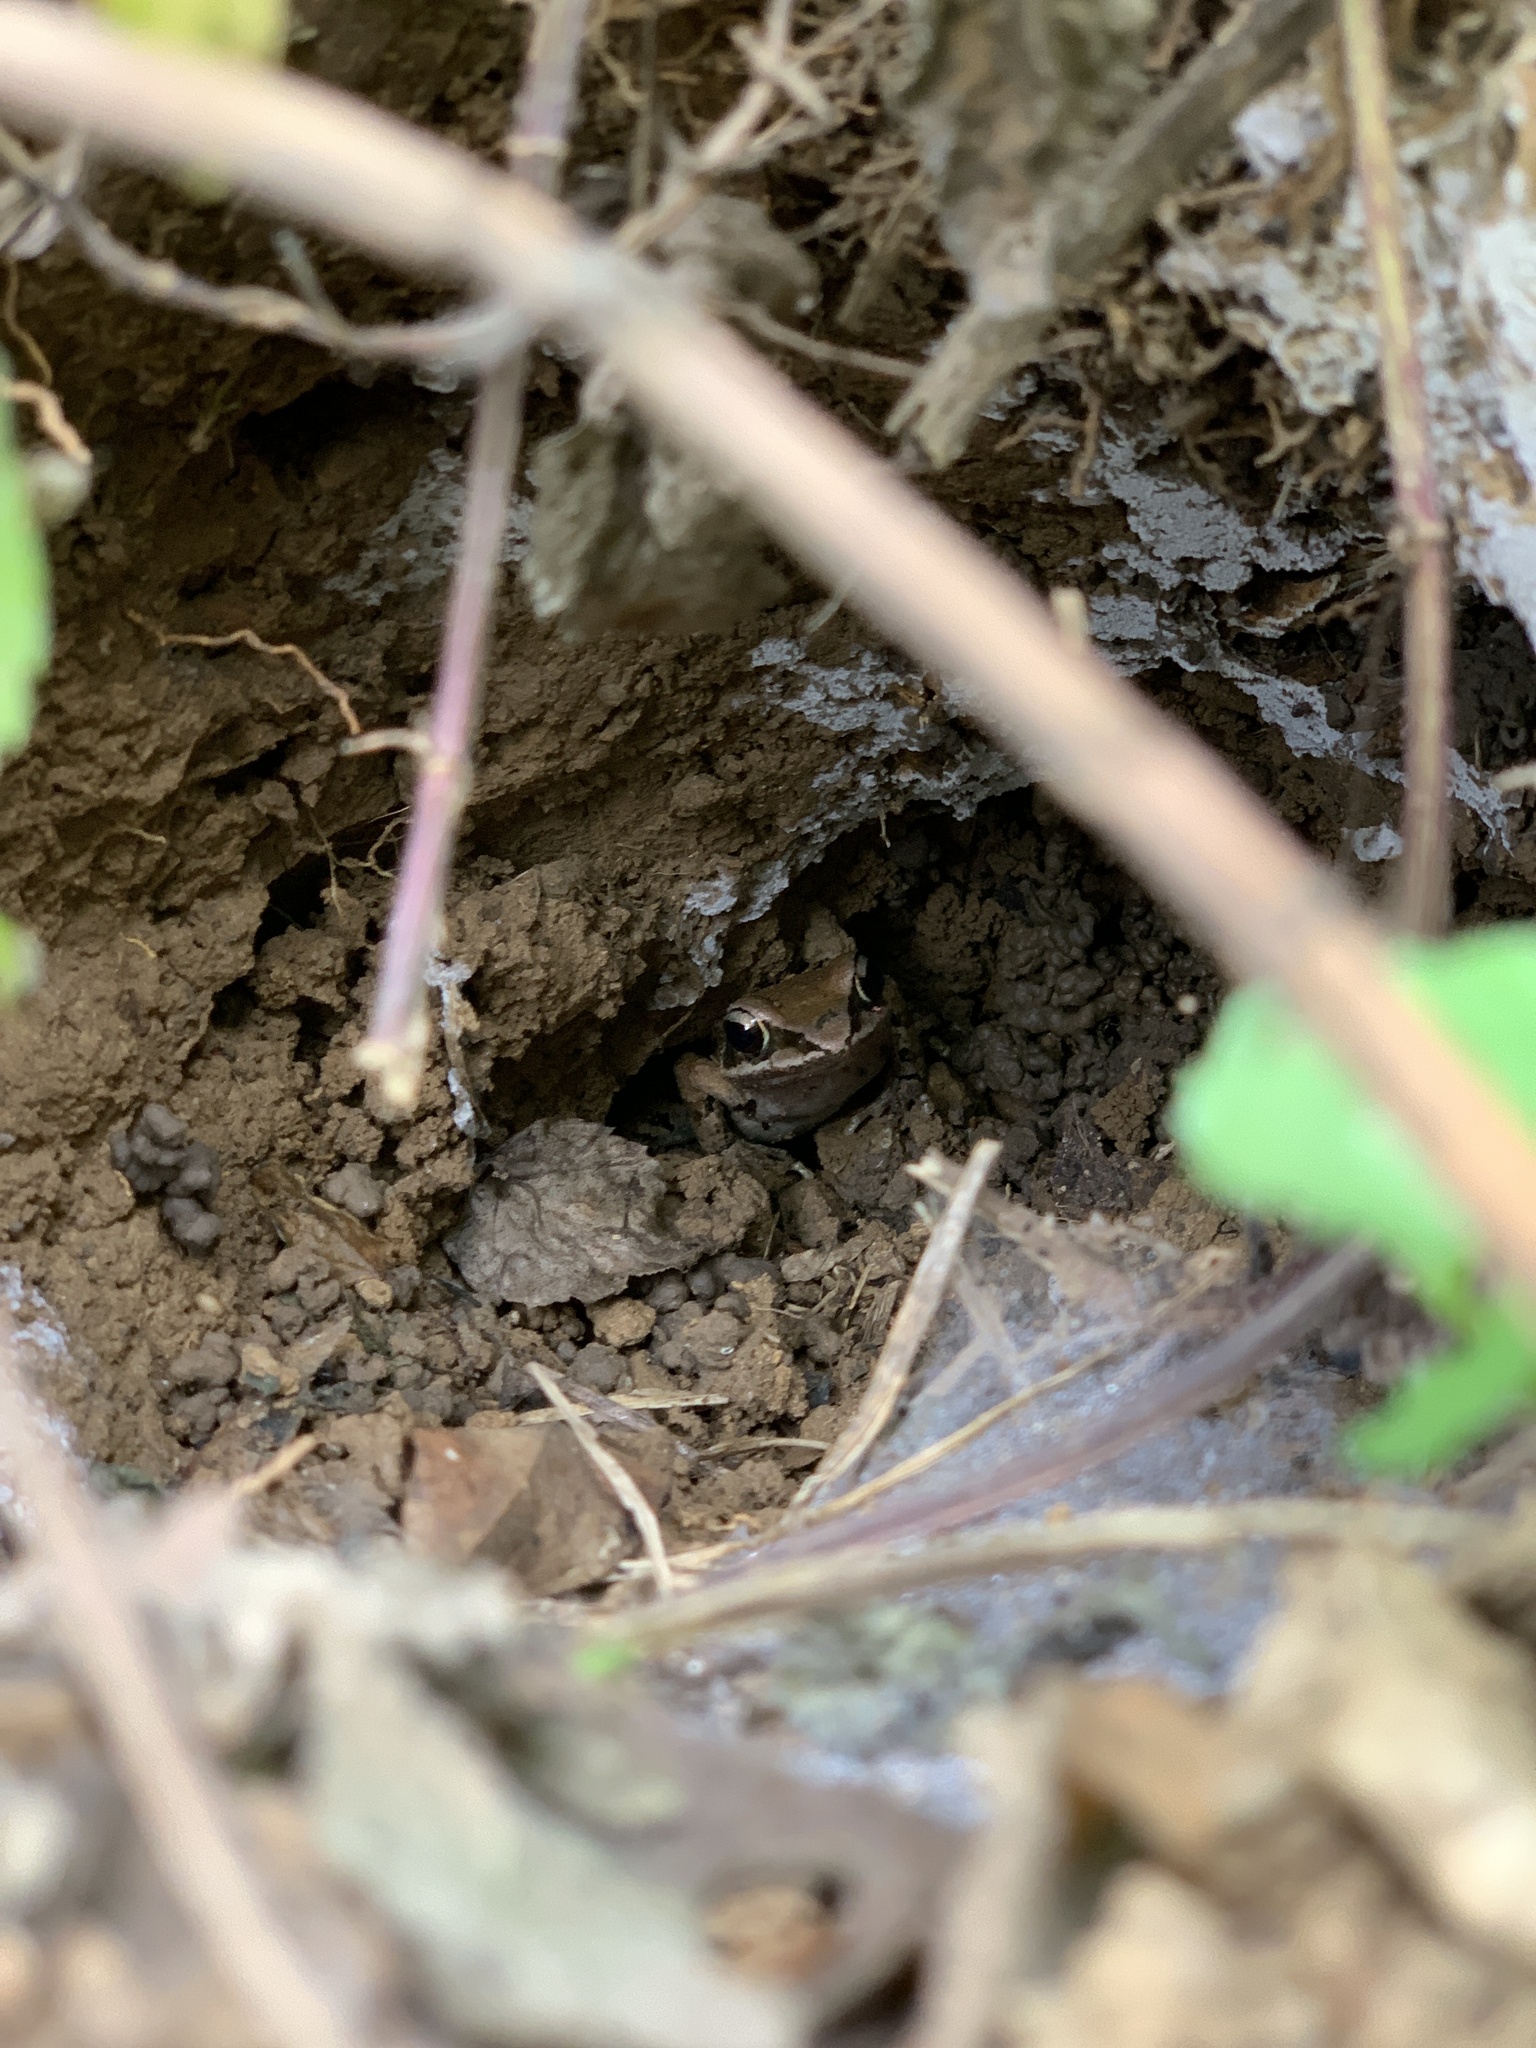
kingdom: Animalia
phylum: Chordata
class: Amphibia
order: Anura
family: Rhacophoridae
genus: Polypedates
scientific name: Polypedates braueri
